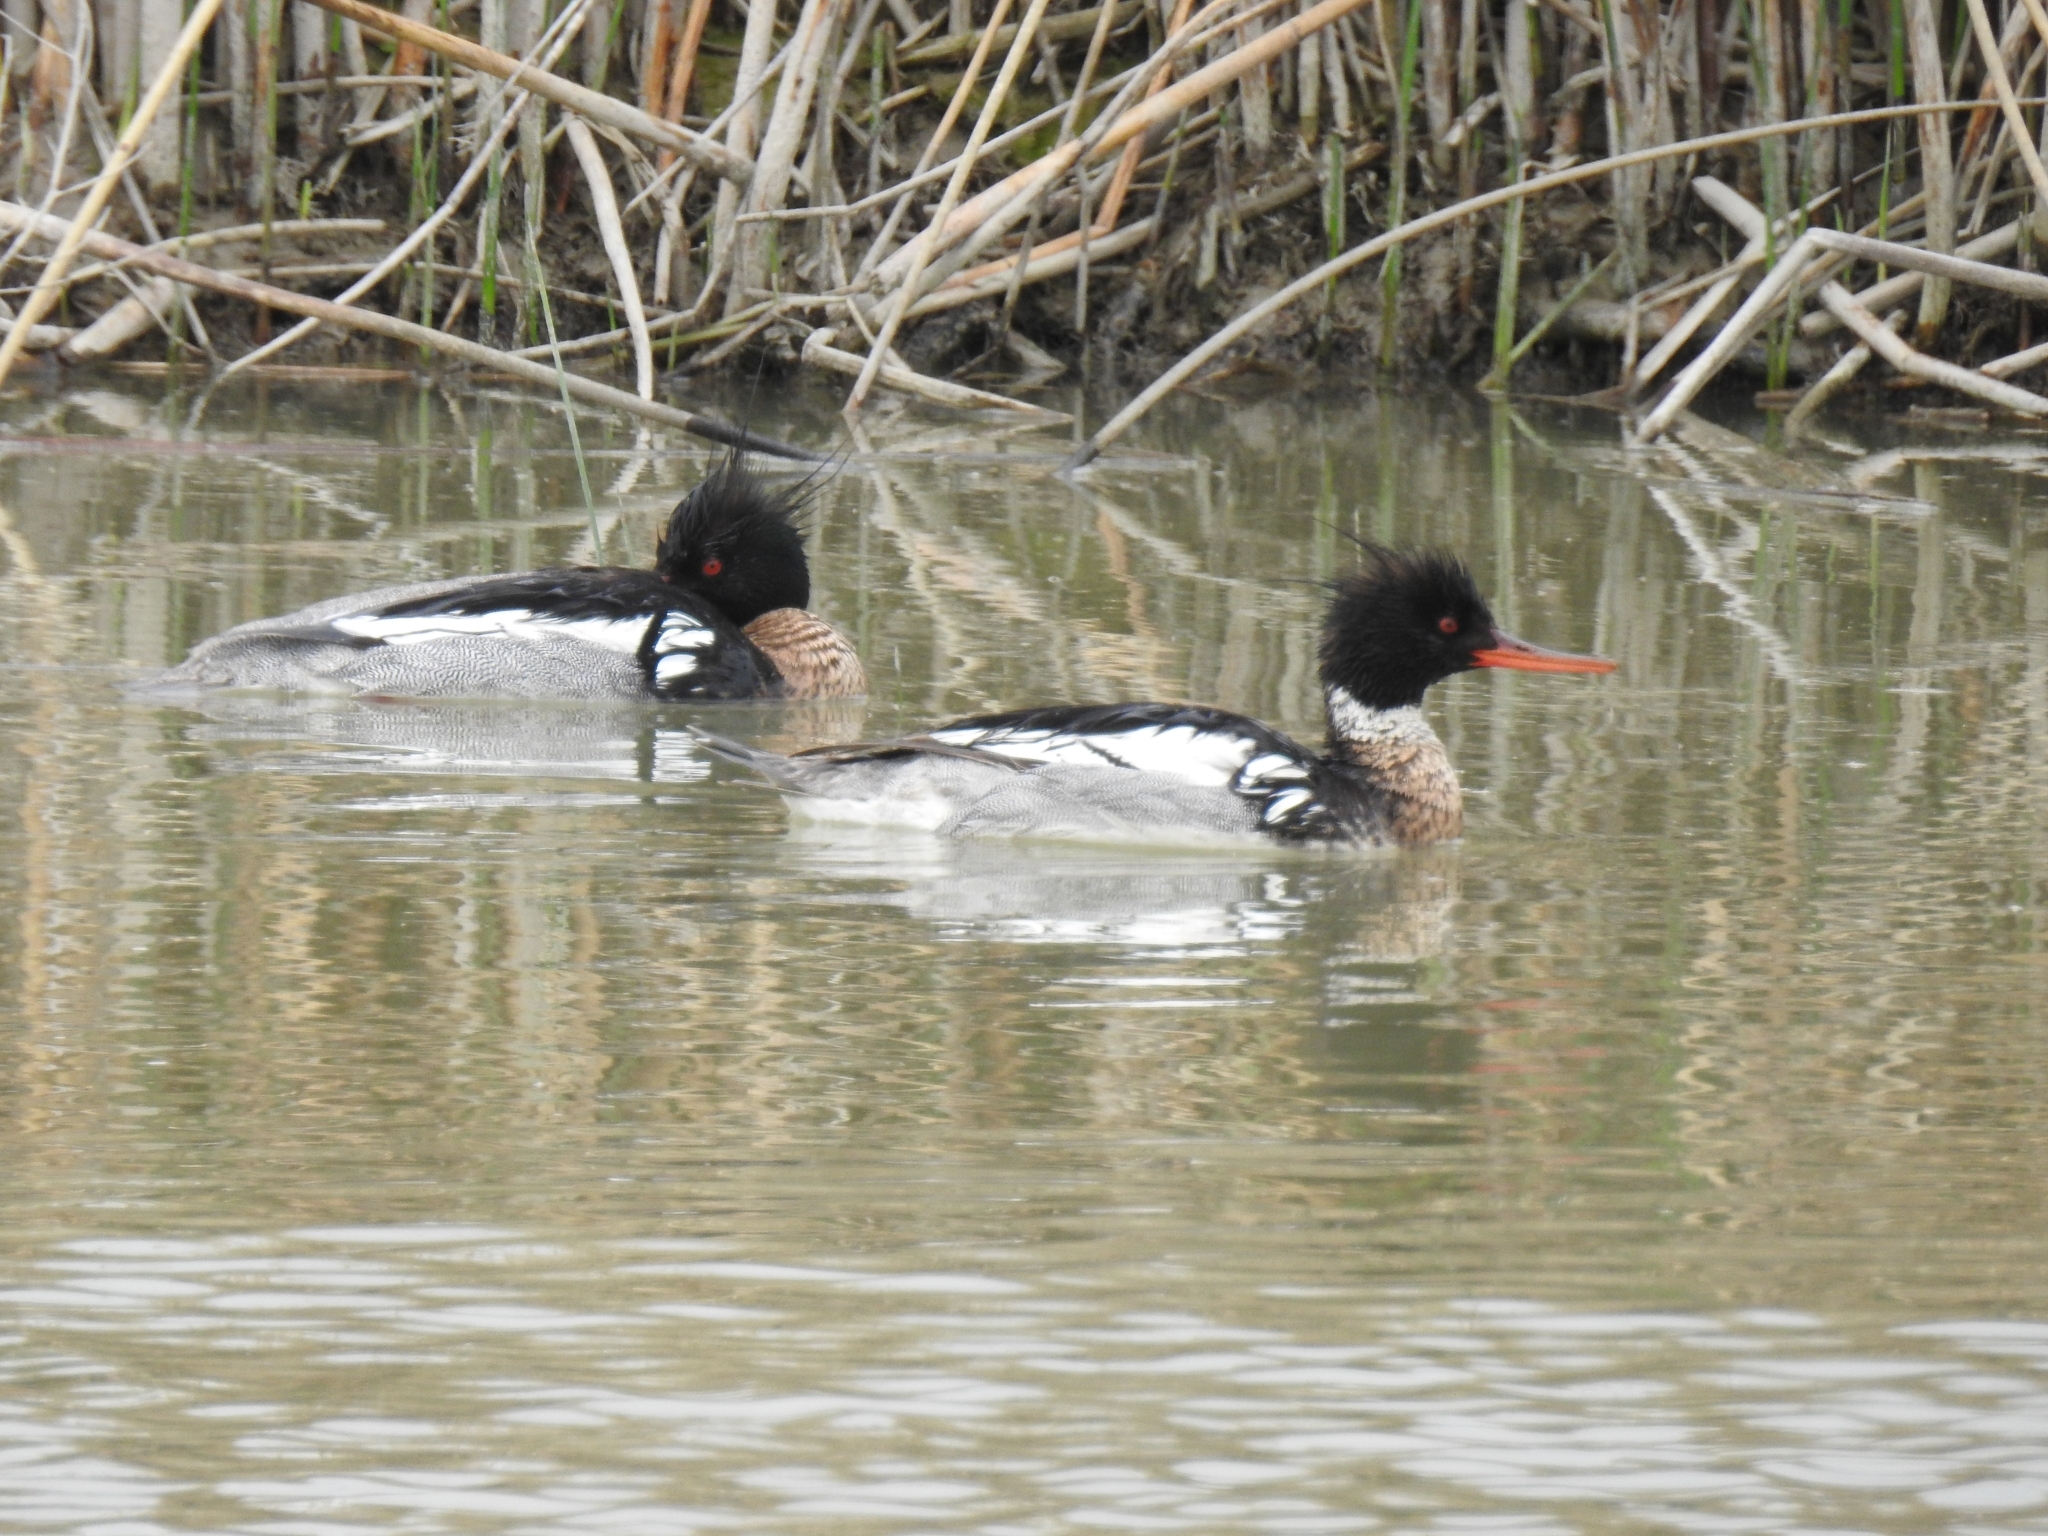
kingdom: Animalia
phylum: Chordata
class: Aves
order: Anseriformes
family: Anatidae
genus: Mergus
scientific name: Mergus serrator
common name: Red-breasted merganser
